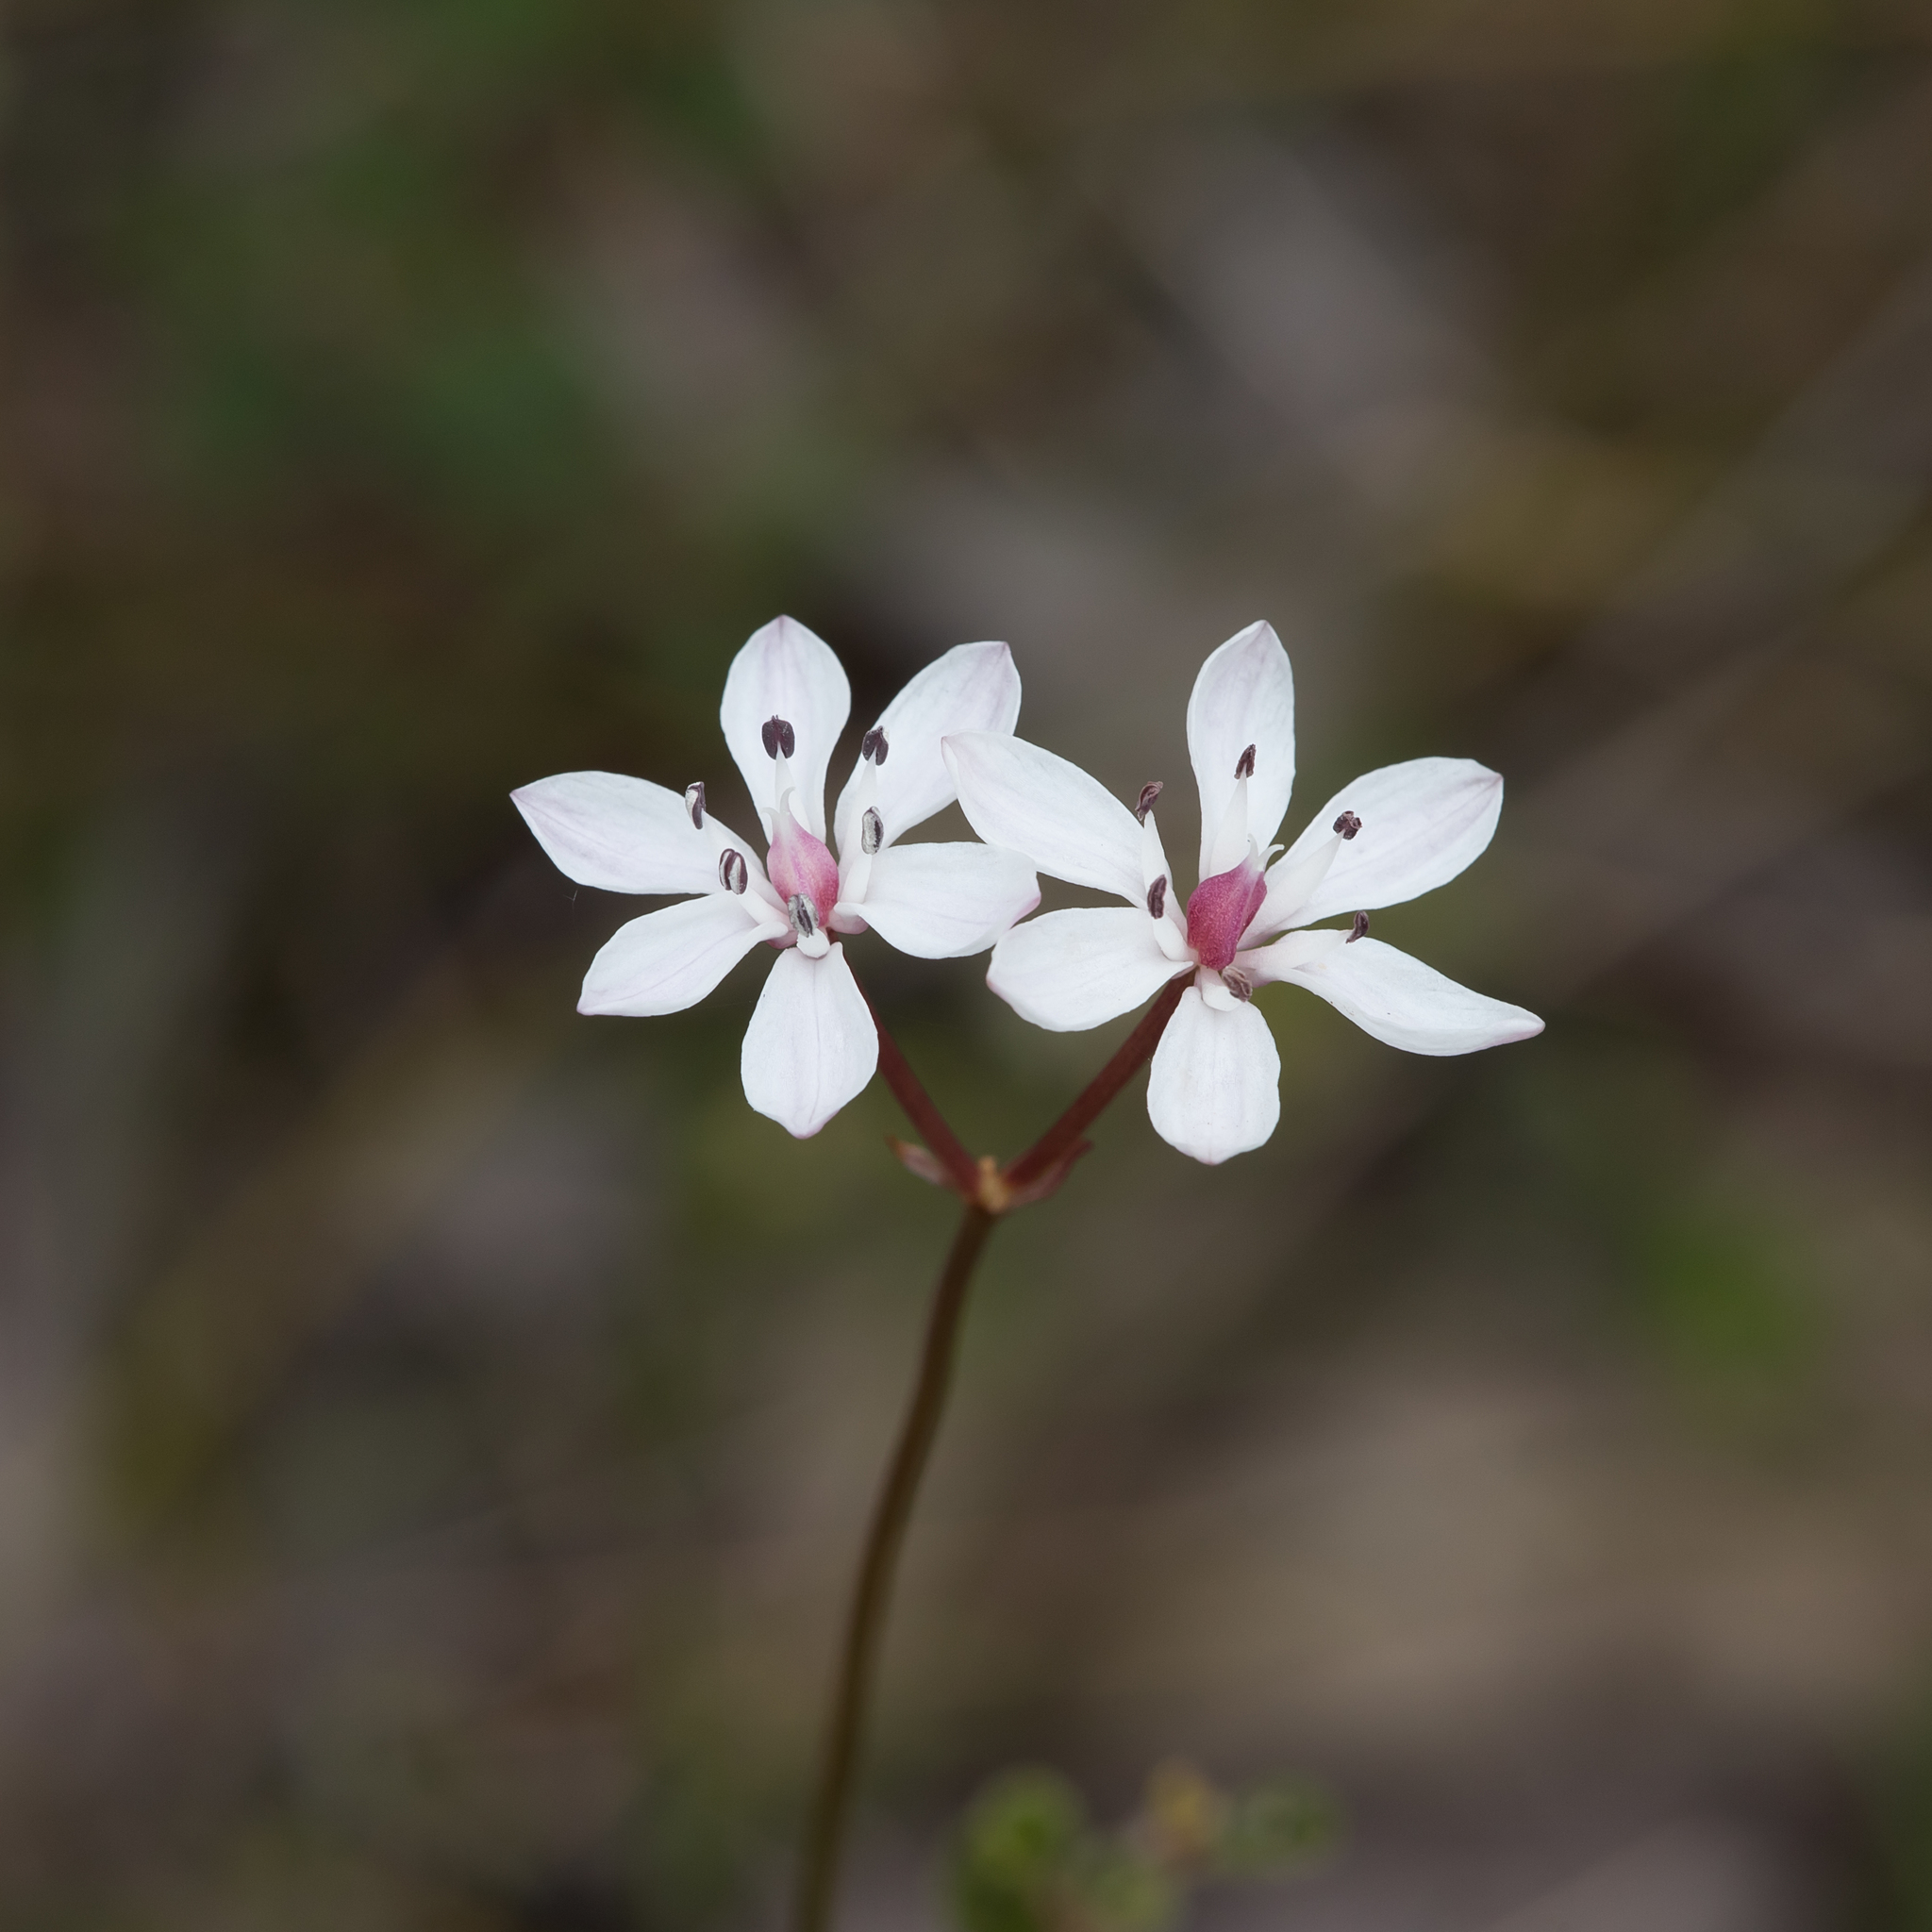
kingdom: Plantae
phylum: Tracheophyta
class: Liliopsida
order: Liliales
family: Colchicaceae
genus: Burchardia
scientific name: Burchardia umbellata
